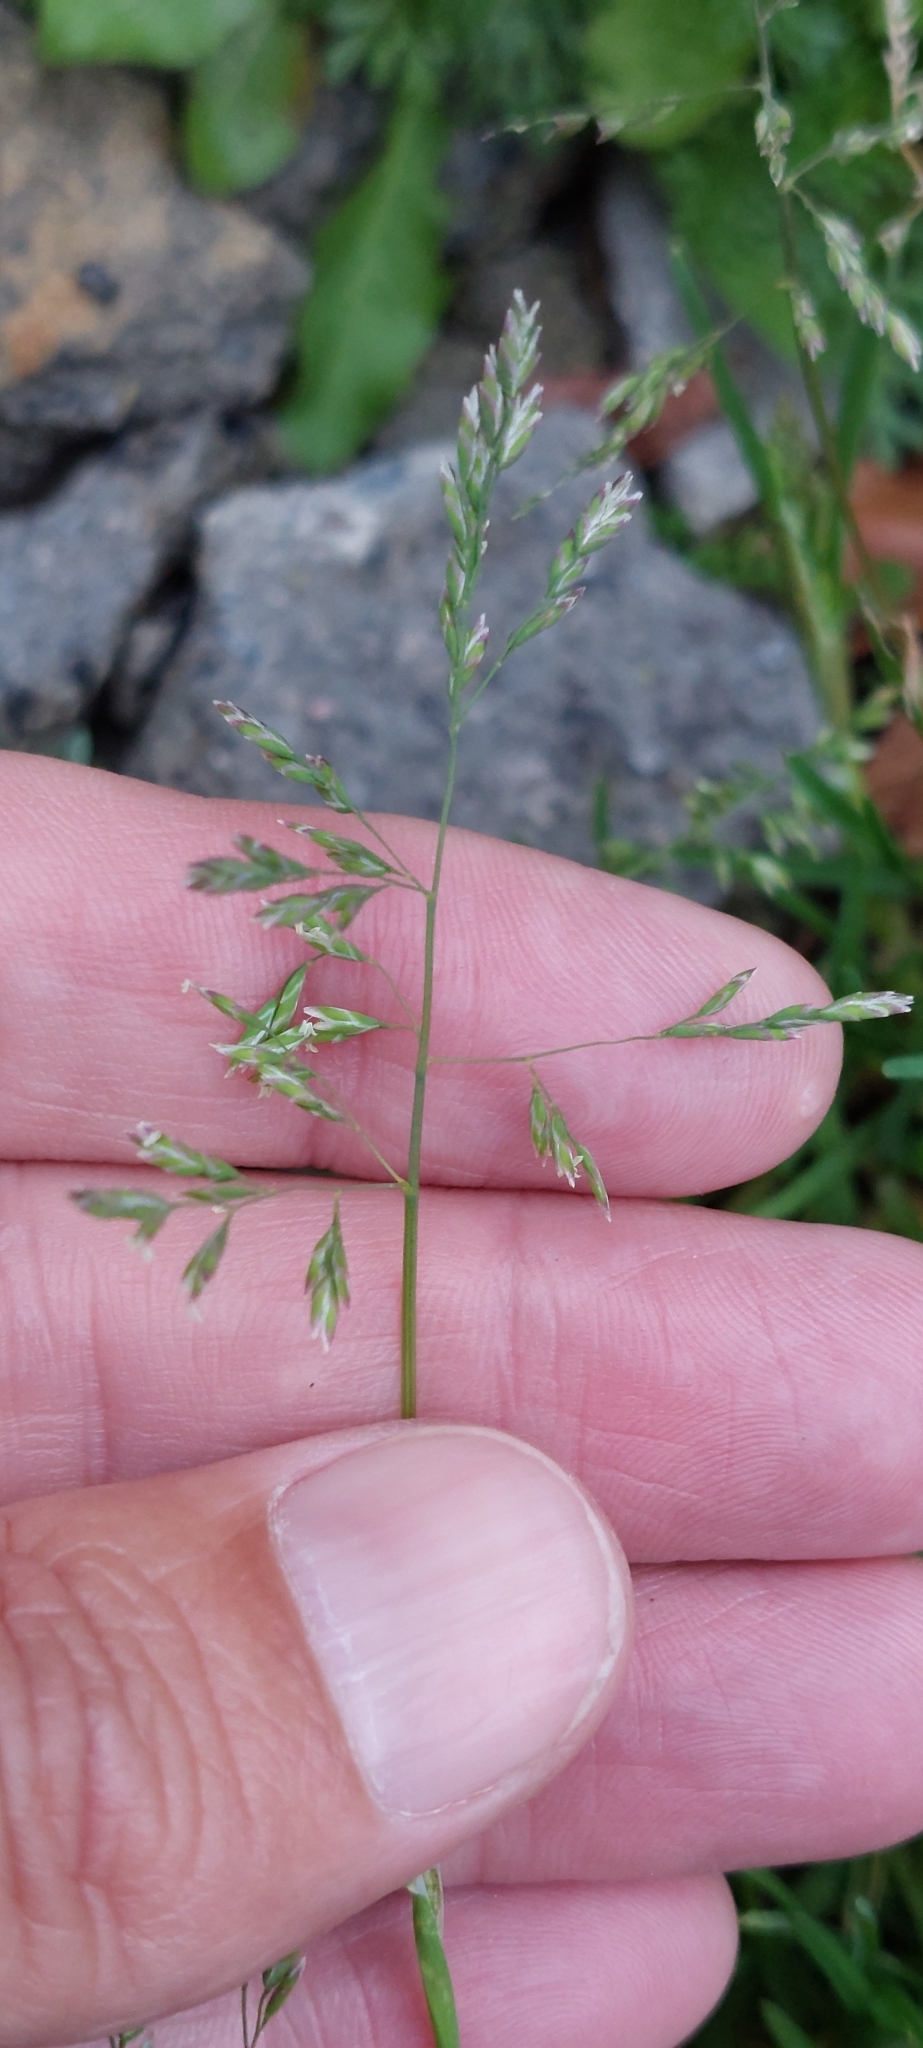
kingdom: Plantae
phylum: Tracheophyta
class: Liliopsida
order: Poales
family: Poaceae
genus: Poa
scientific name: Poa annua
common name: Annual bluegrass
